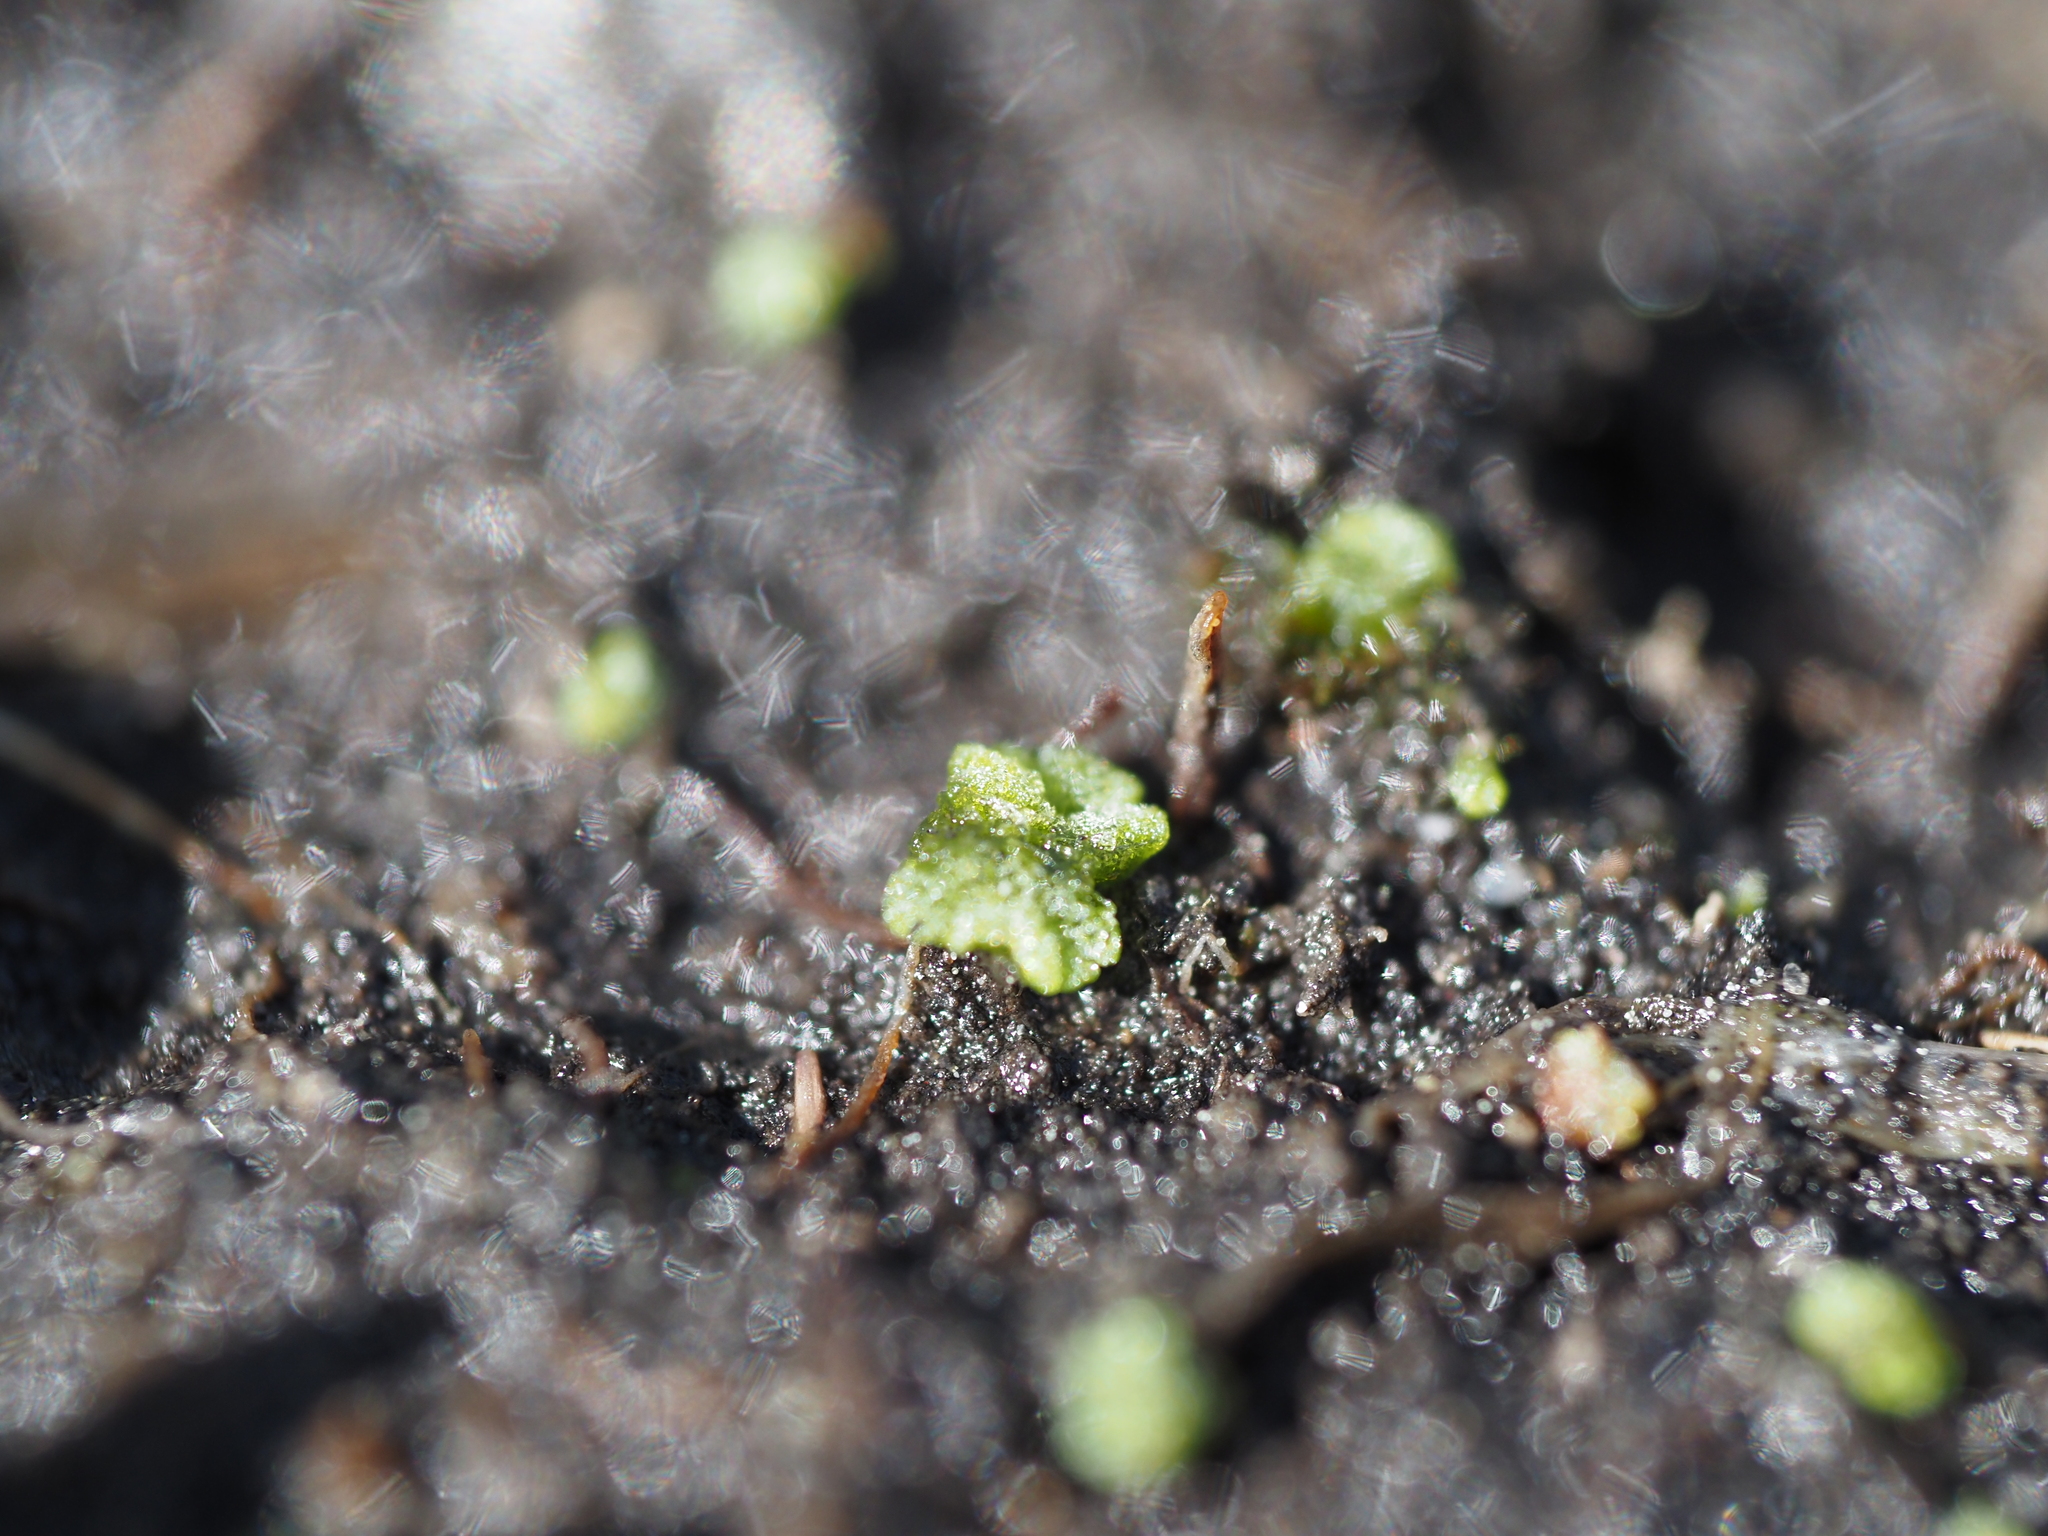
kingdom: Plantae
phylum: Marchantiophyta
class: Marchantiopsida
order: Marchantiales
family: Ricciaceae
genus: Riccia
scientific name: Riccia cavernosa
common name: Cavernous crystalwort
